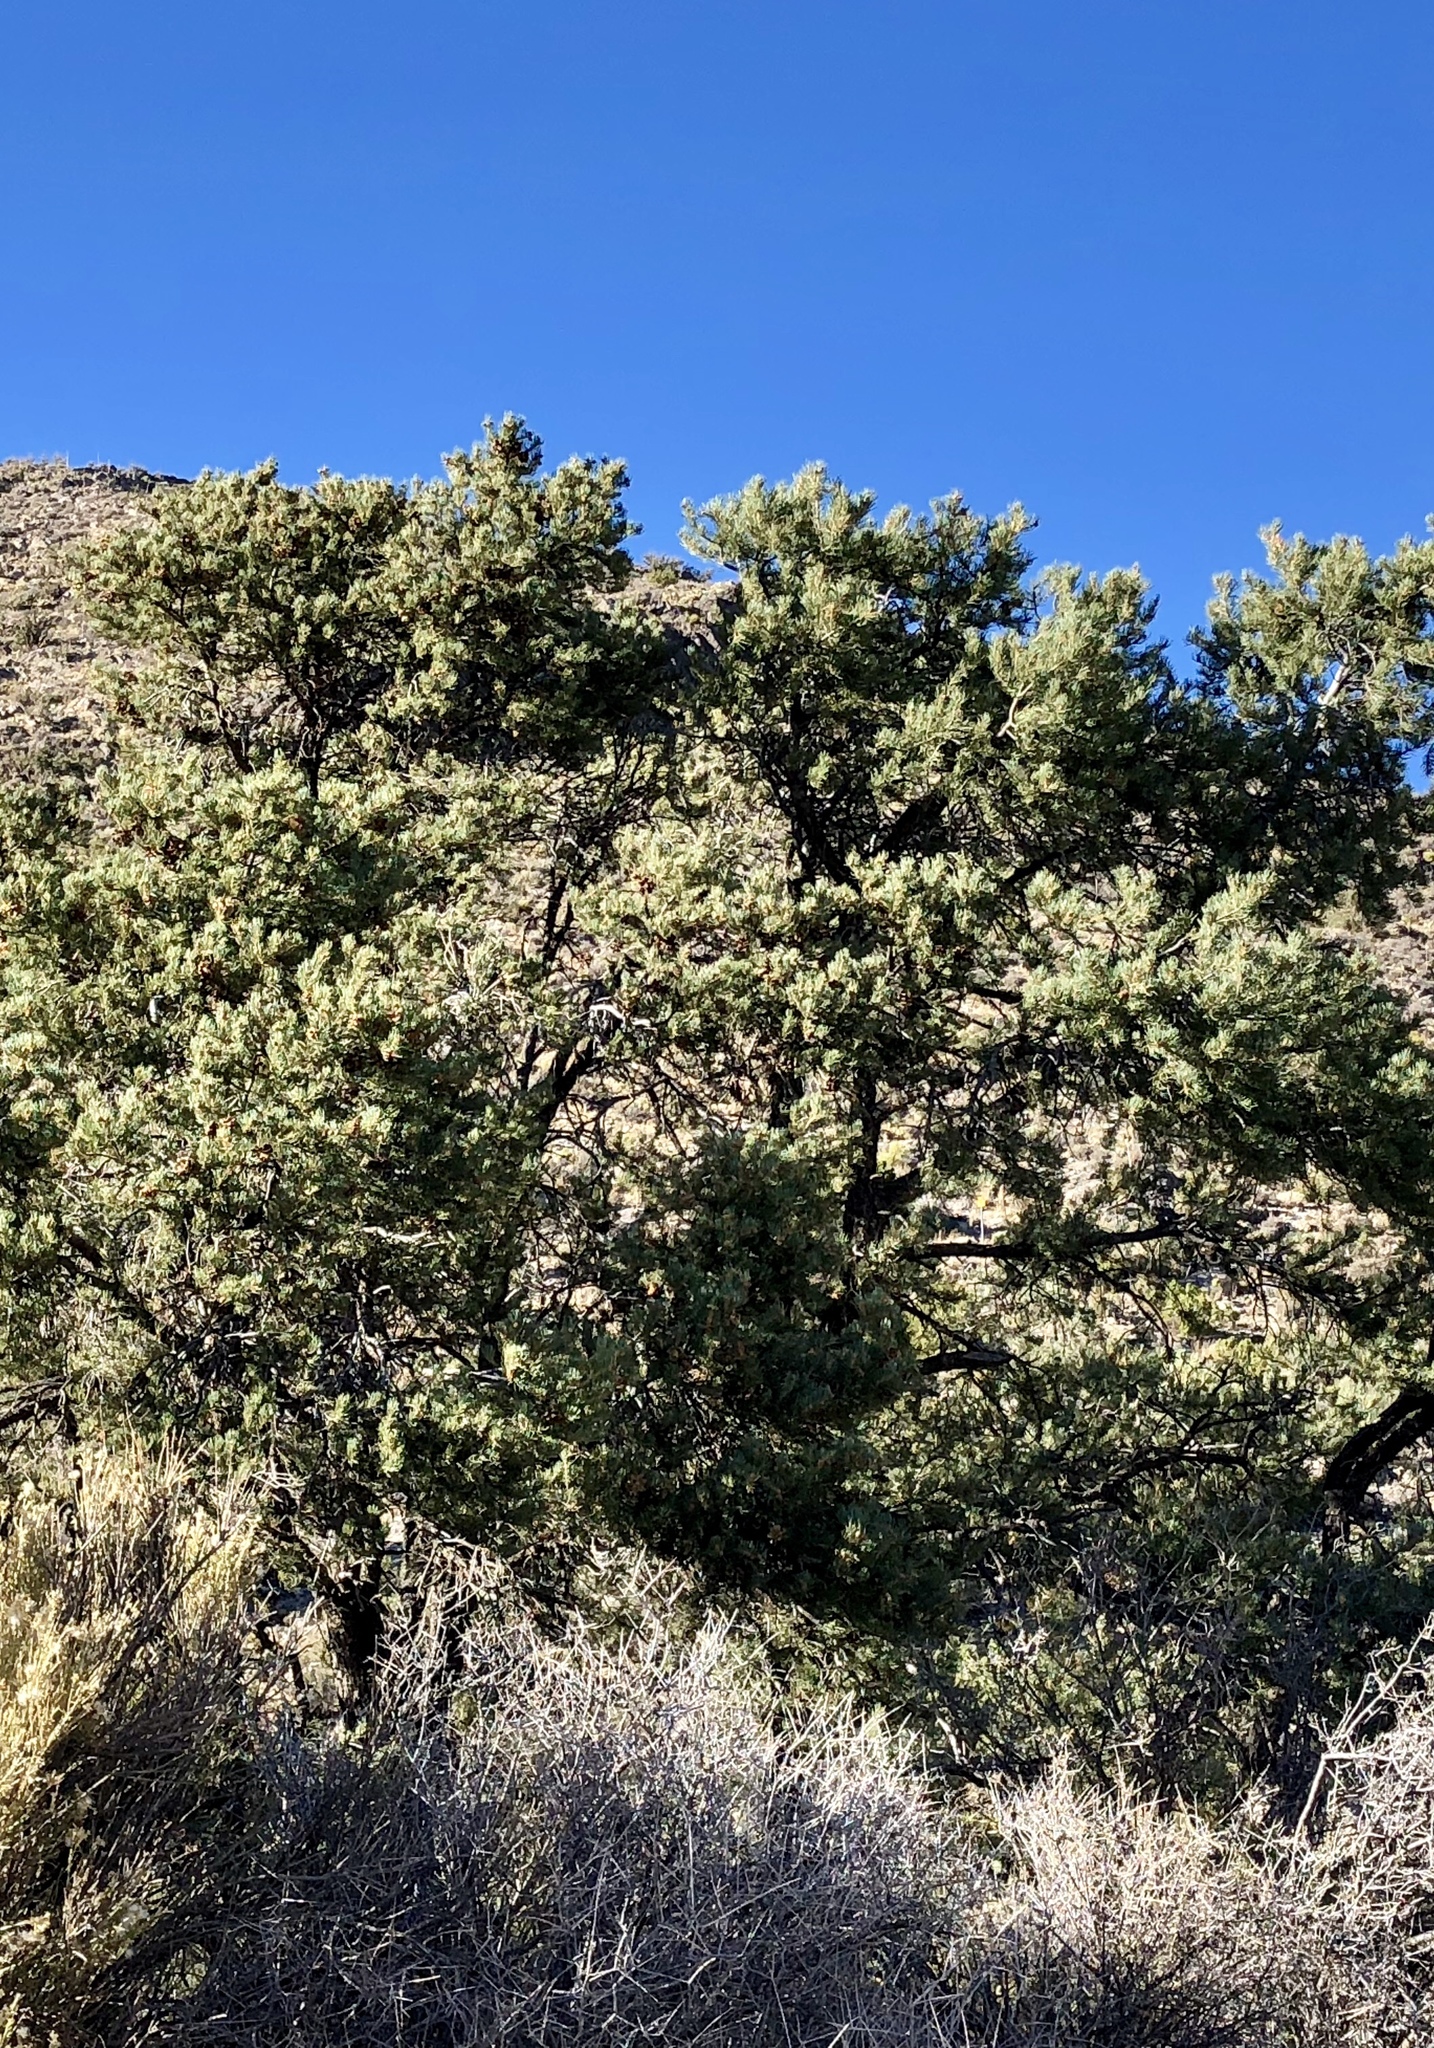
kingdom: Plantae
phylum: Tracheophyta
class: Pinopsida
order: Pinales
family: Pinaceae
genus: Pinus
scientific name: Pinus monophylla
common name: One-leaved nut pine
